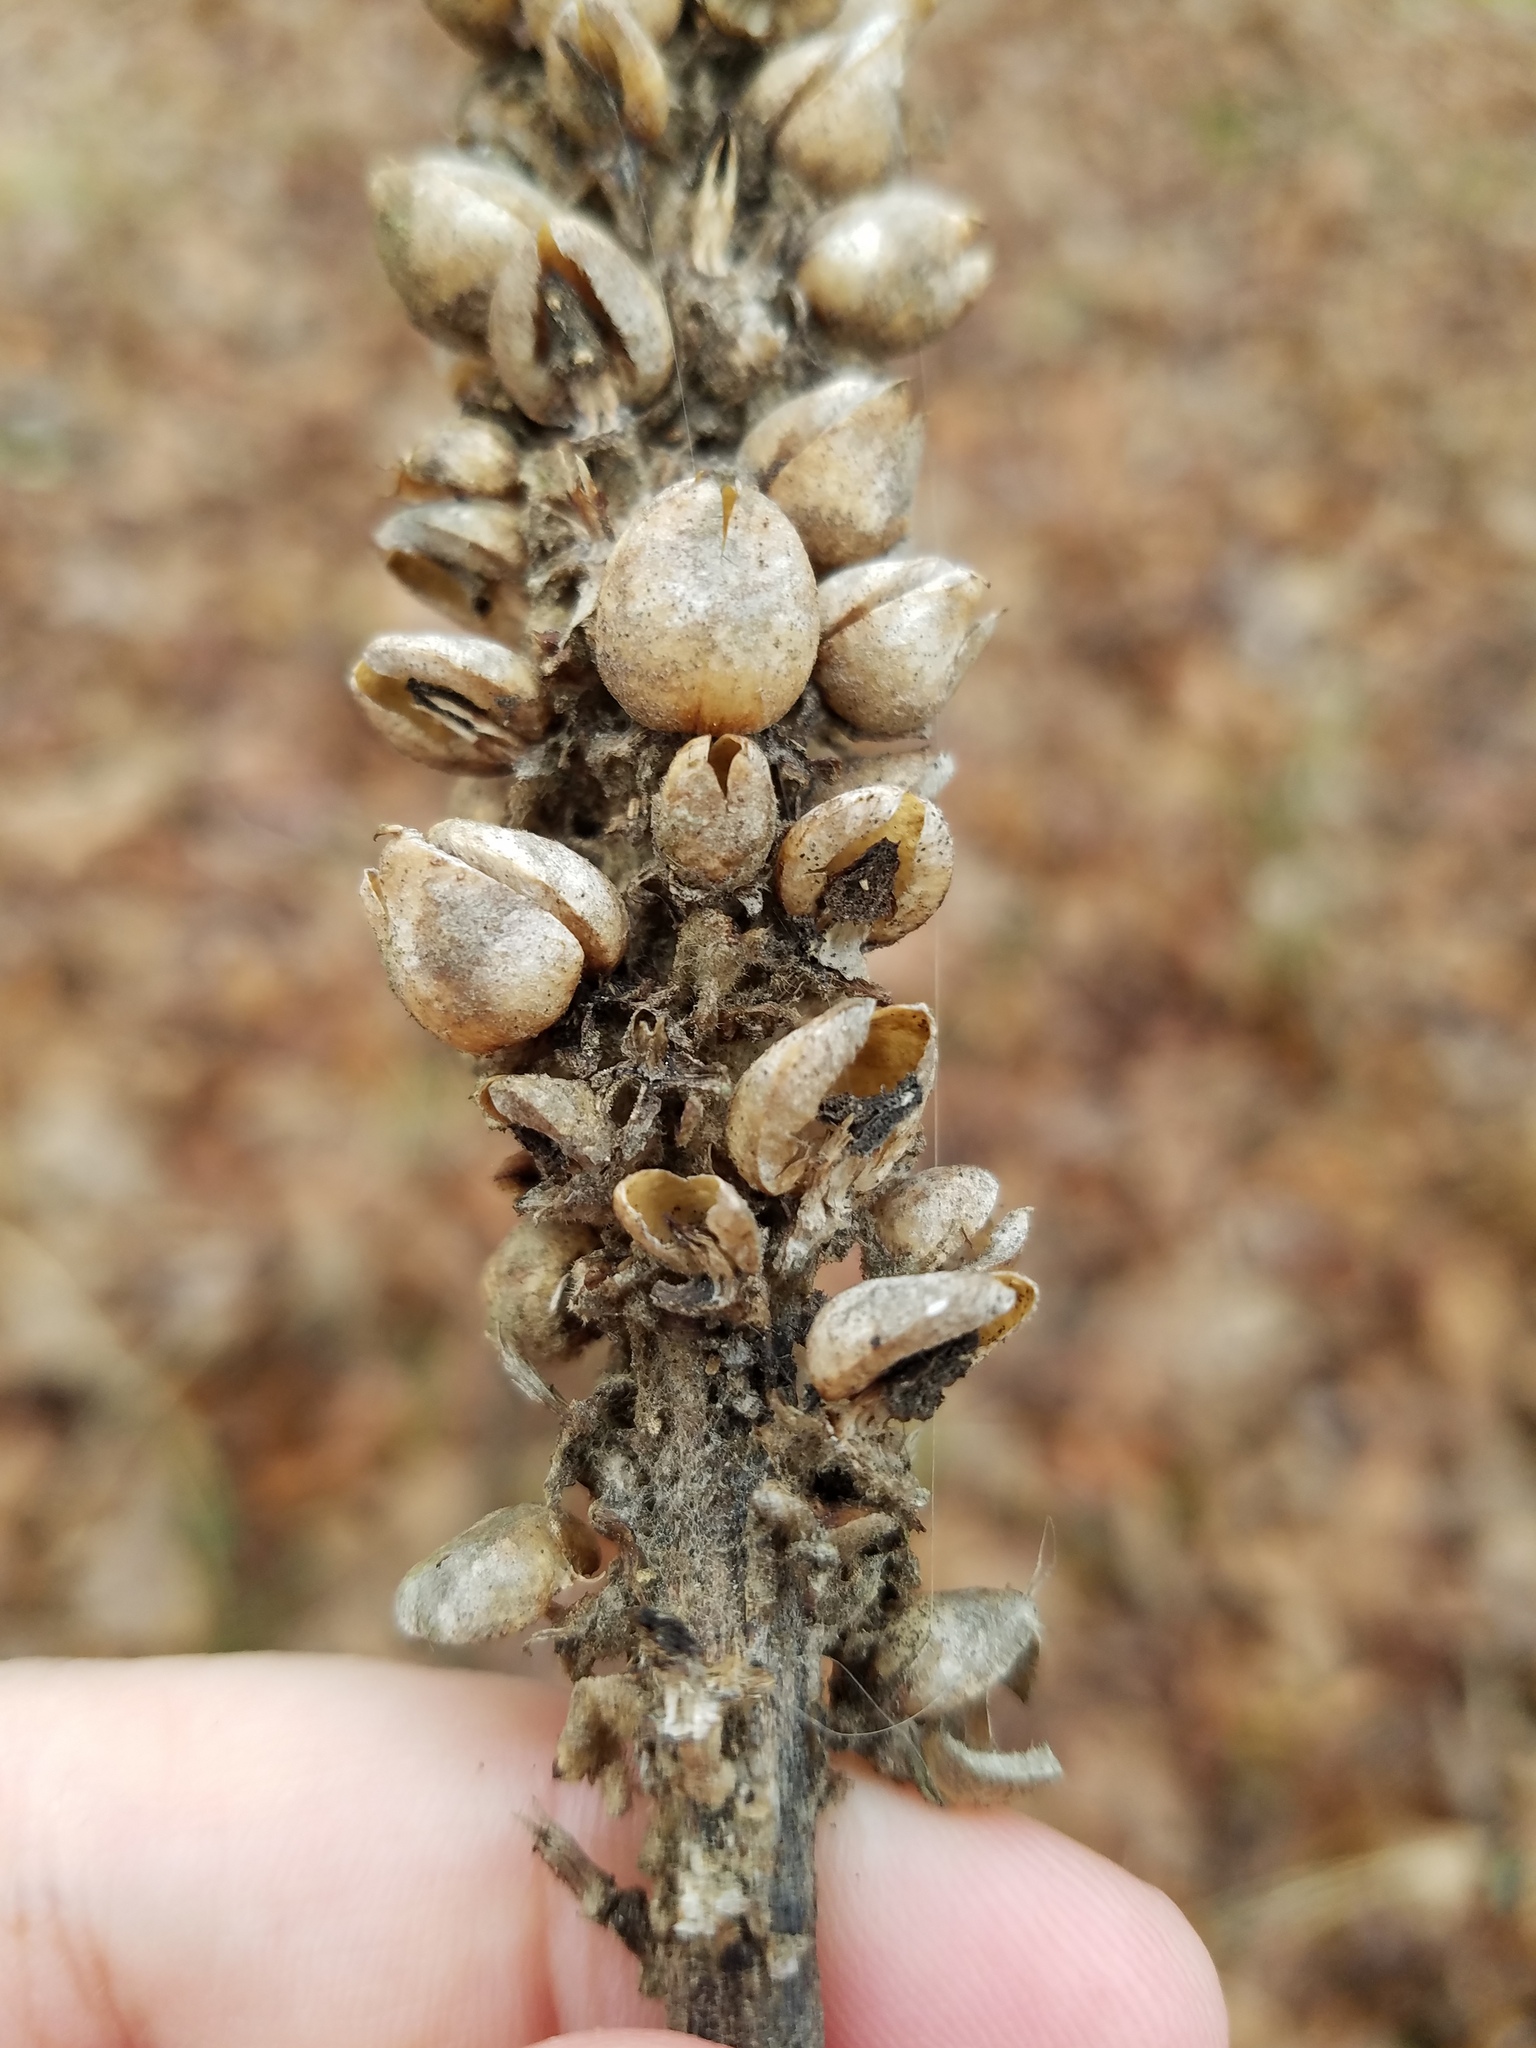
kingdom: Plantae
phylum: Tracheophyta
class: Magnoliopsida
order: Lamiales
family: Scrophulariaceae
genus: Verbascum
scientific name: Verbascum thapsus
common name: Common mullein
